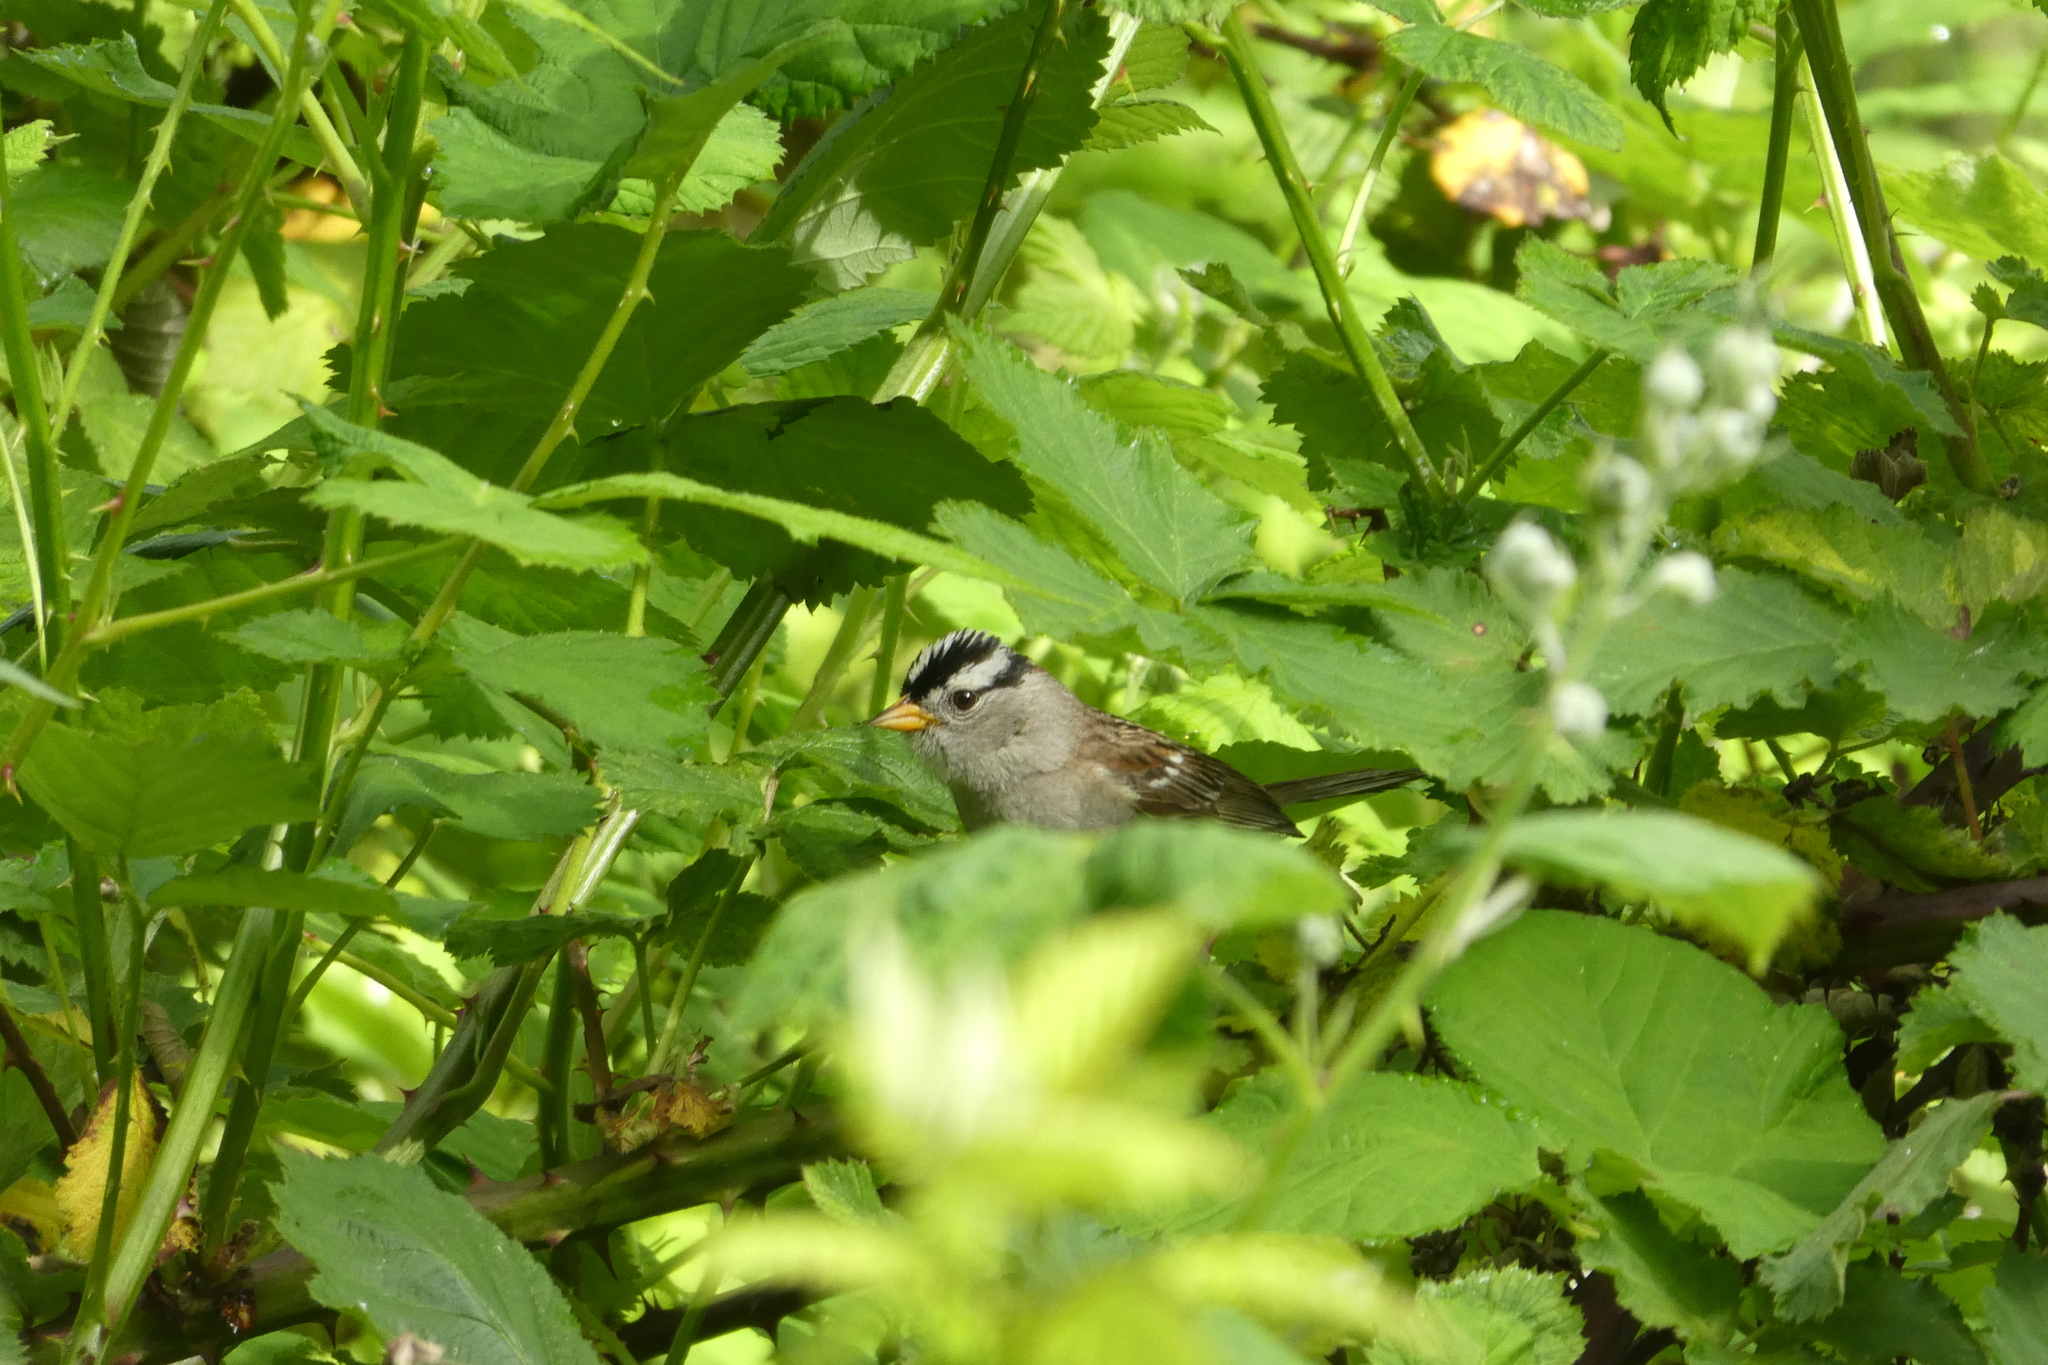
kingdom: Animalia
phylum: Chordata
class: Aves
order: Passeriformes
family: Passerellidae
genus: Zonotrichia
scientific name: Zonotrichia leucophrys
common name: White-crowned sparrow
